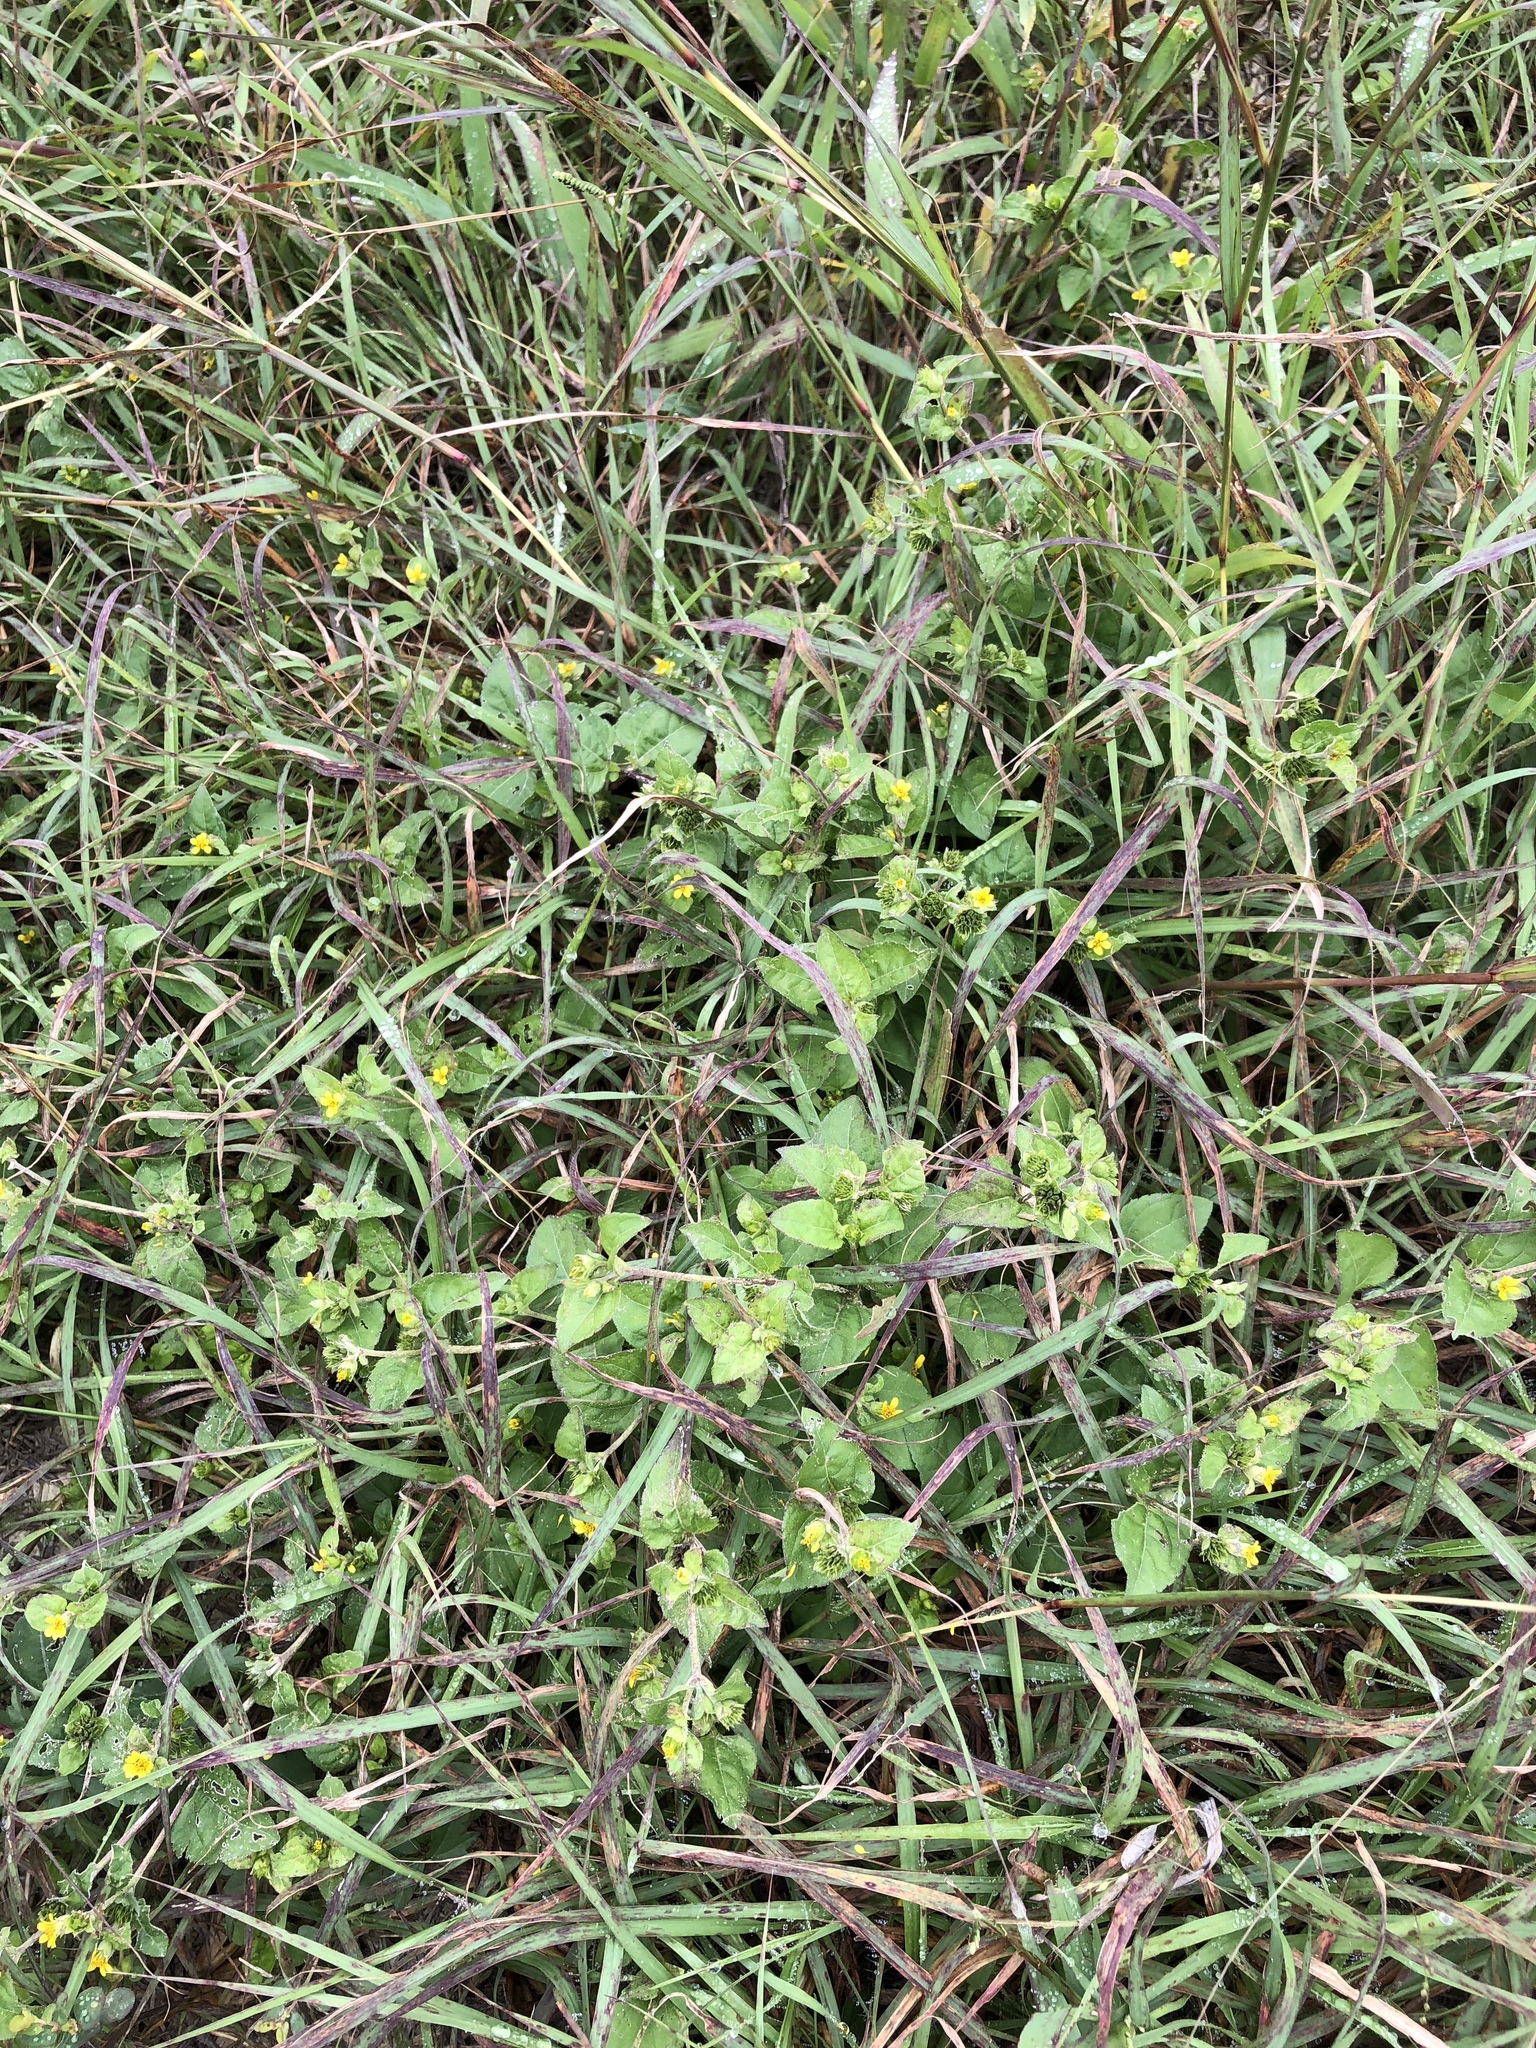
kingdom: Plantae
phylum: Tracheophyta
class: Magnoliopsida
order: Asterales
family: Asteraceae
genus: Calyptocarpus
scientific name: Calyptocarpus vialis
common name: Straggler daisy
